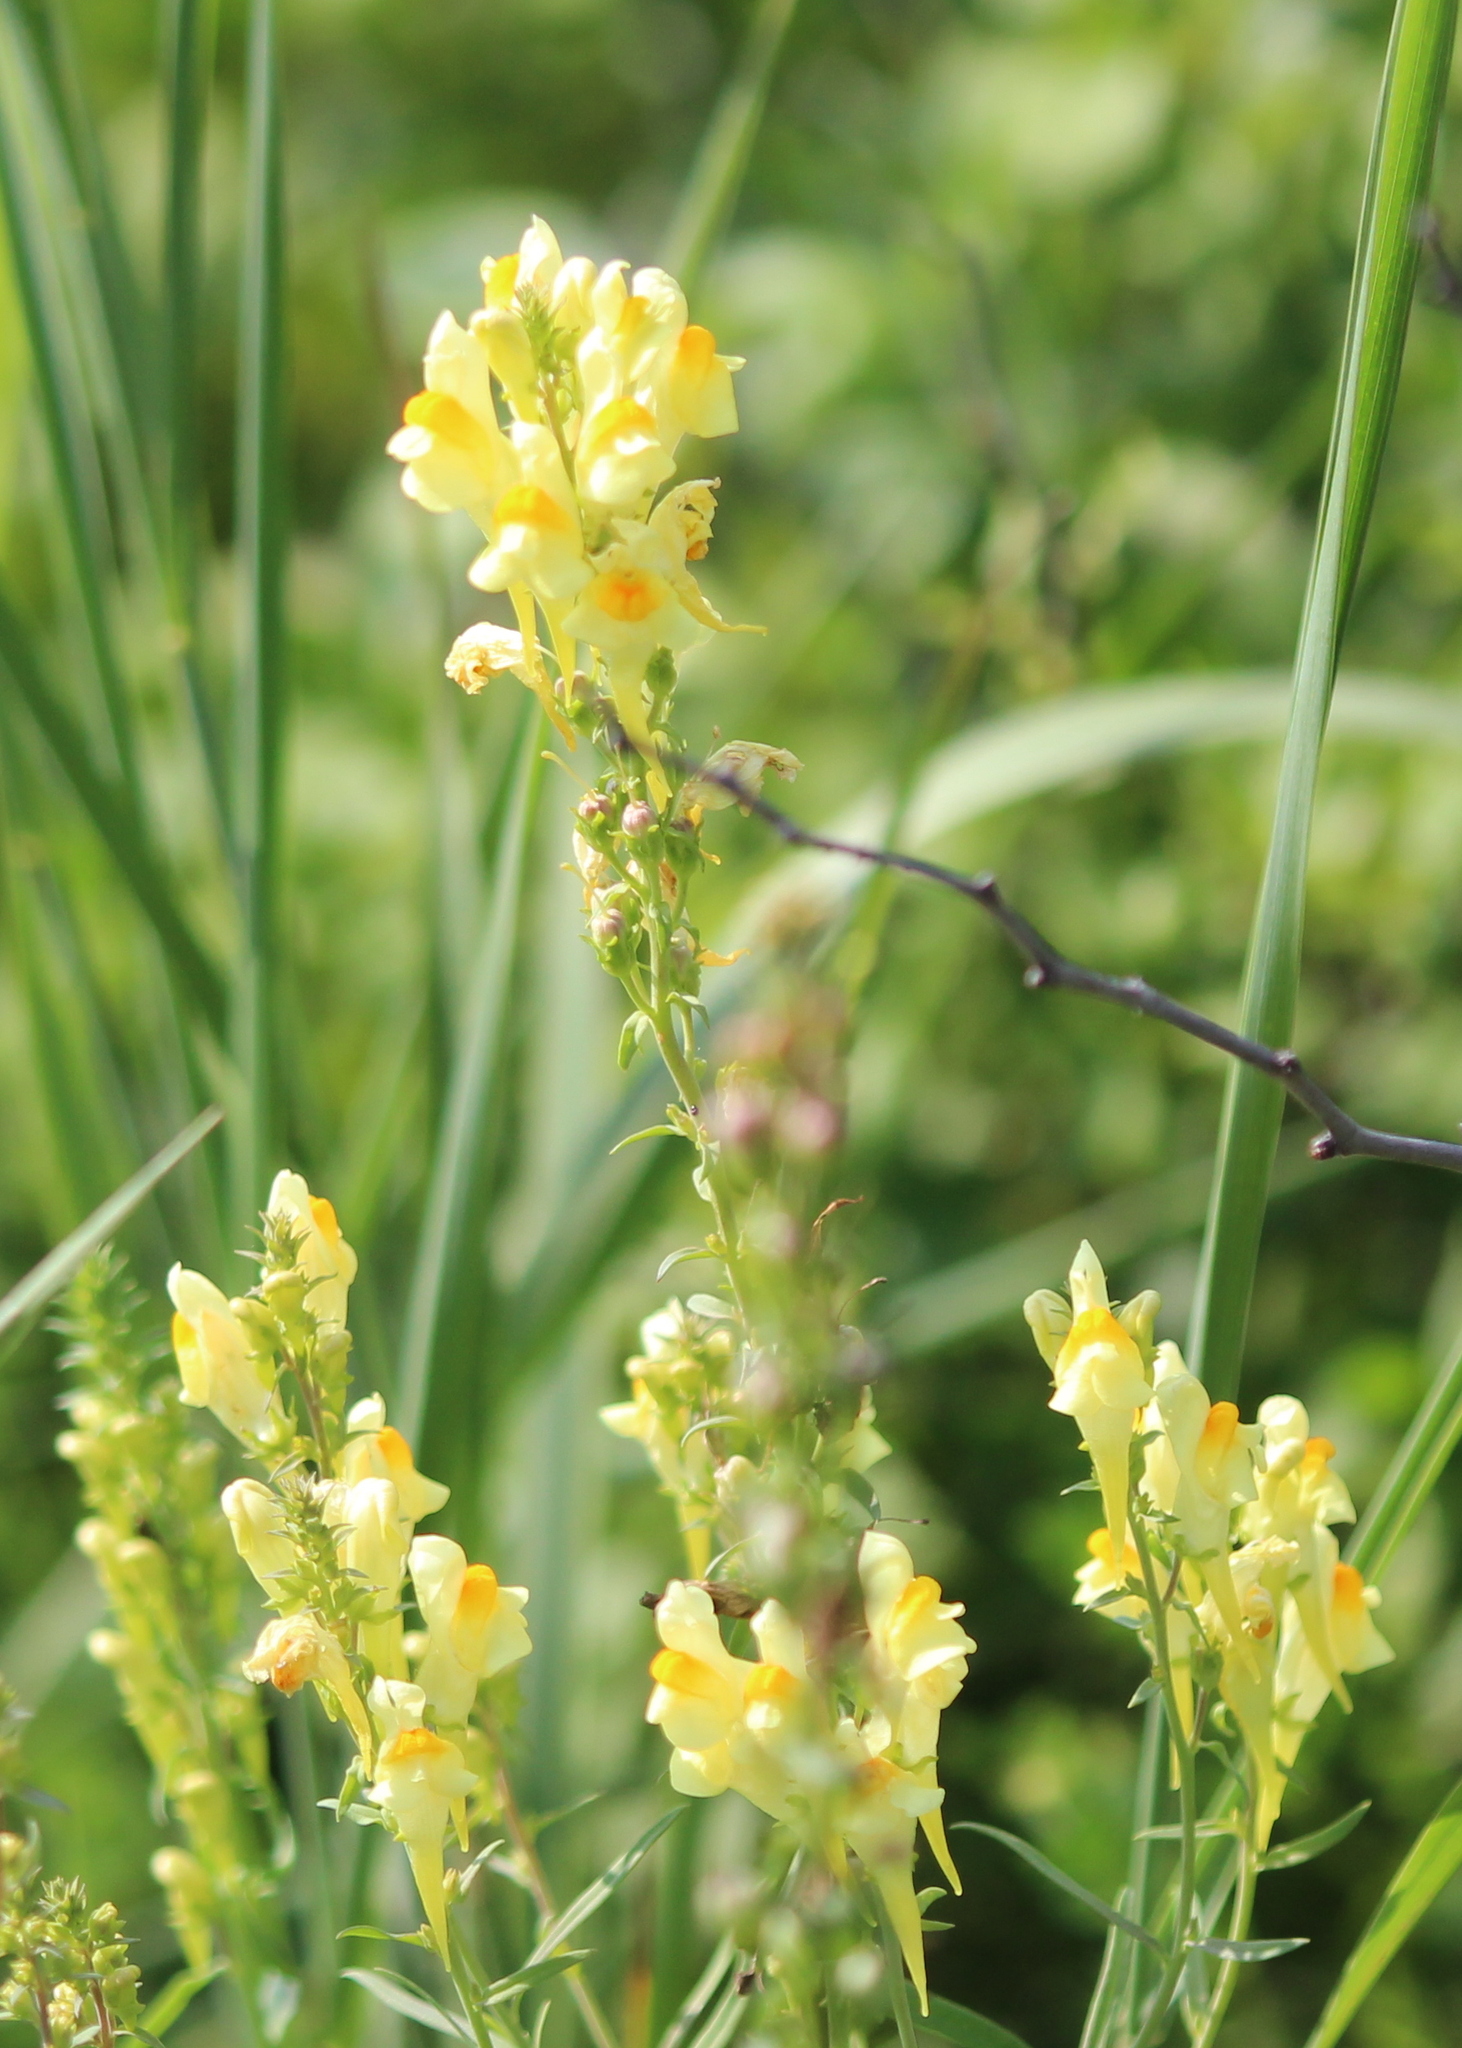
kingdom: Plantae
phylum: Tracheophyta
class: Magnoliopsida
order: Lamiales
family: Plantaginaceae
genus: Linaria
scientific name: Linaria vulgaris
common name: Butter and eggs
